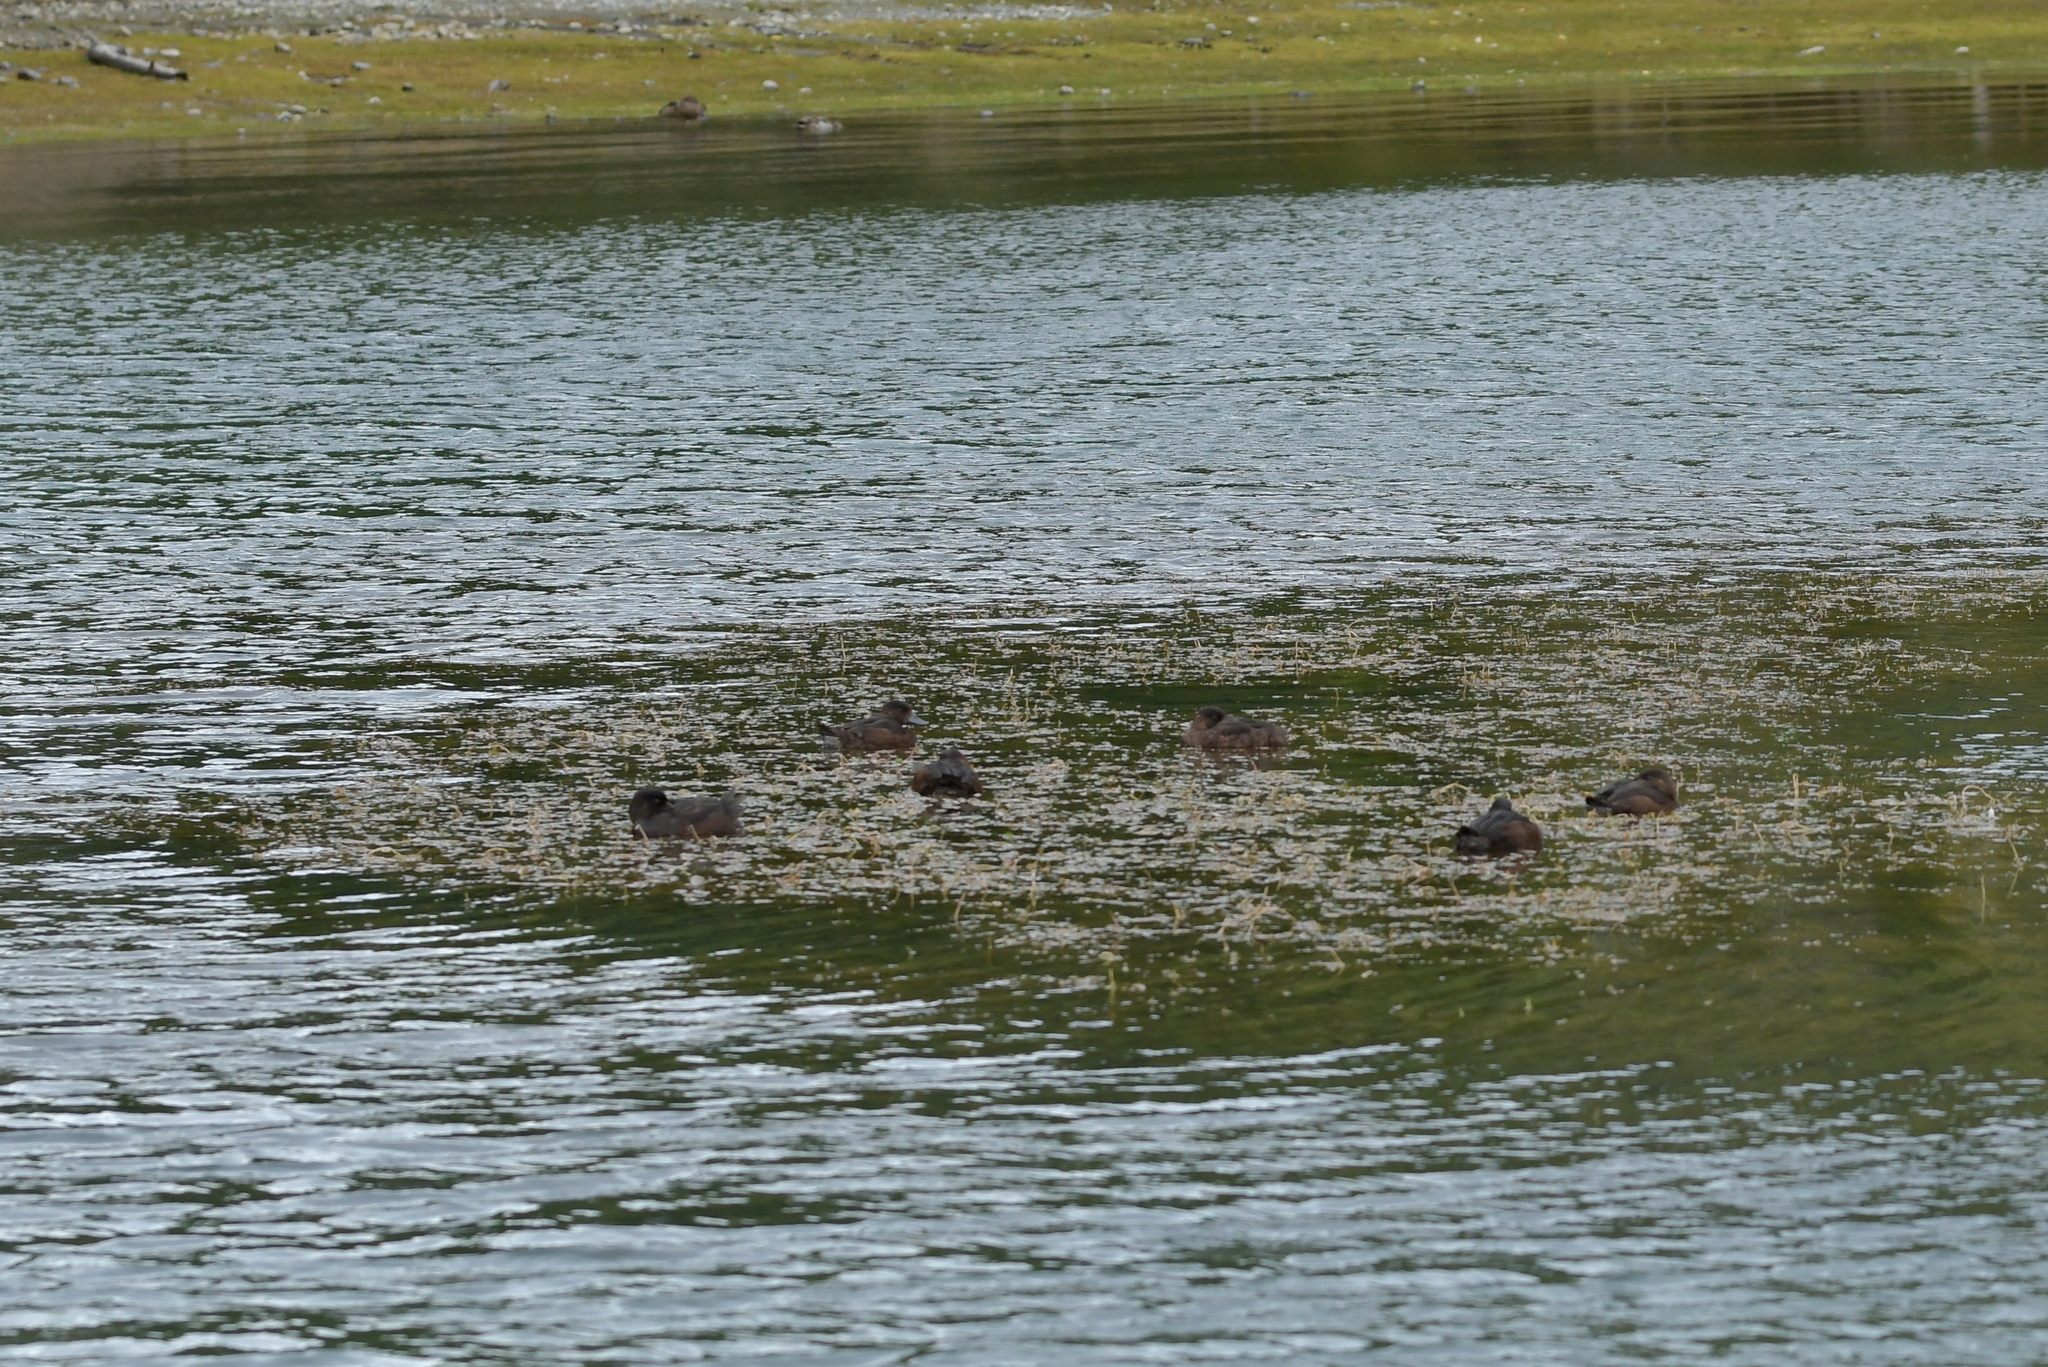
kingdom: Animalia
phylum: Chordata
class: Aves
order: Anseriformes
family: Anatidae
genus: Aythya
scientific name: Aythya novaeseelandiae
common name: New zealand scaup
